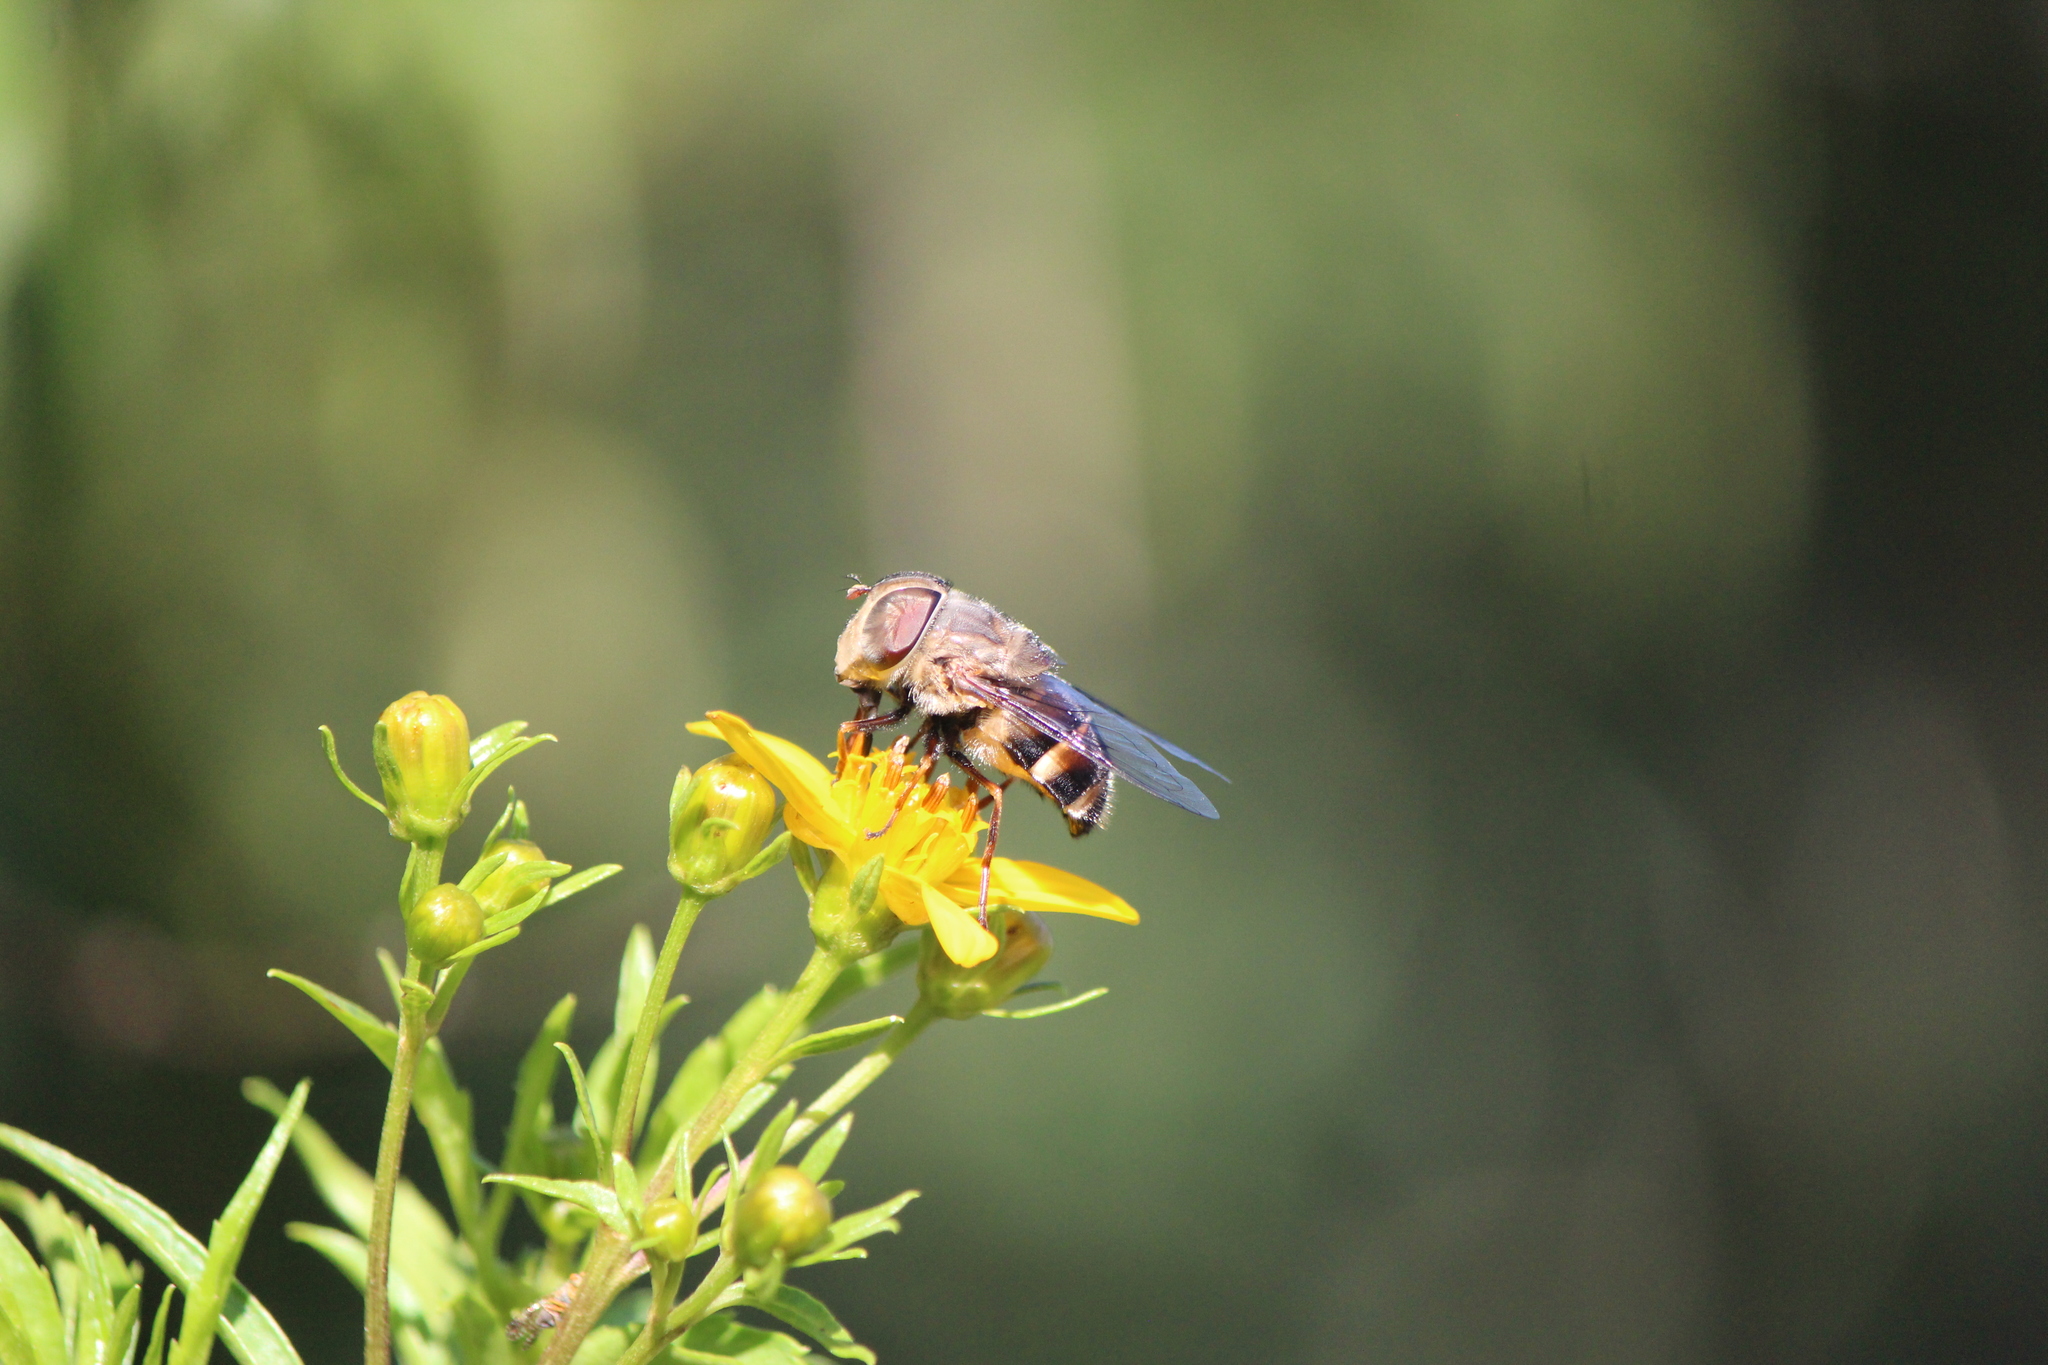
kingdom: Animalia
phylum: Arthropoda
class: Insecta
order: Diptera
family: Syrphidae
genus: Copestylum
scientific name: Copestylum quadratum
